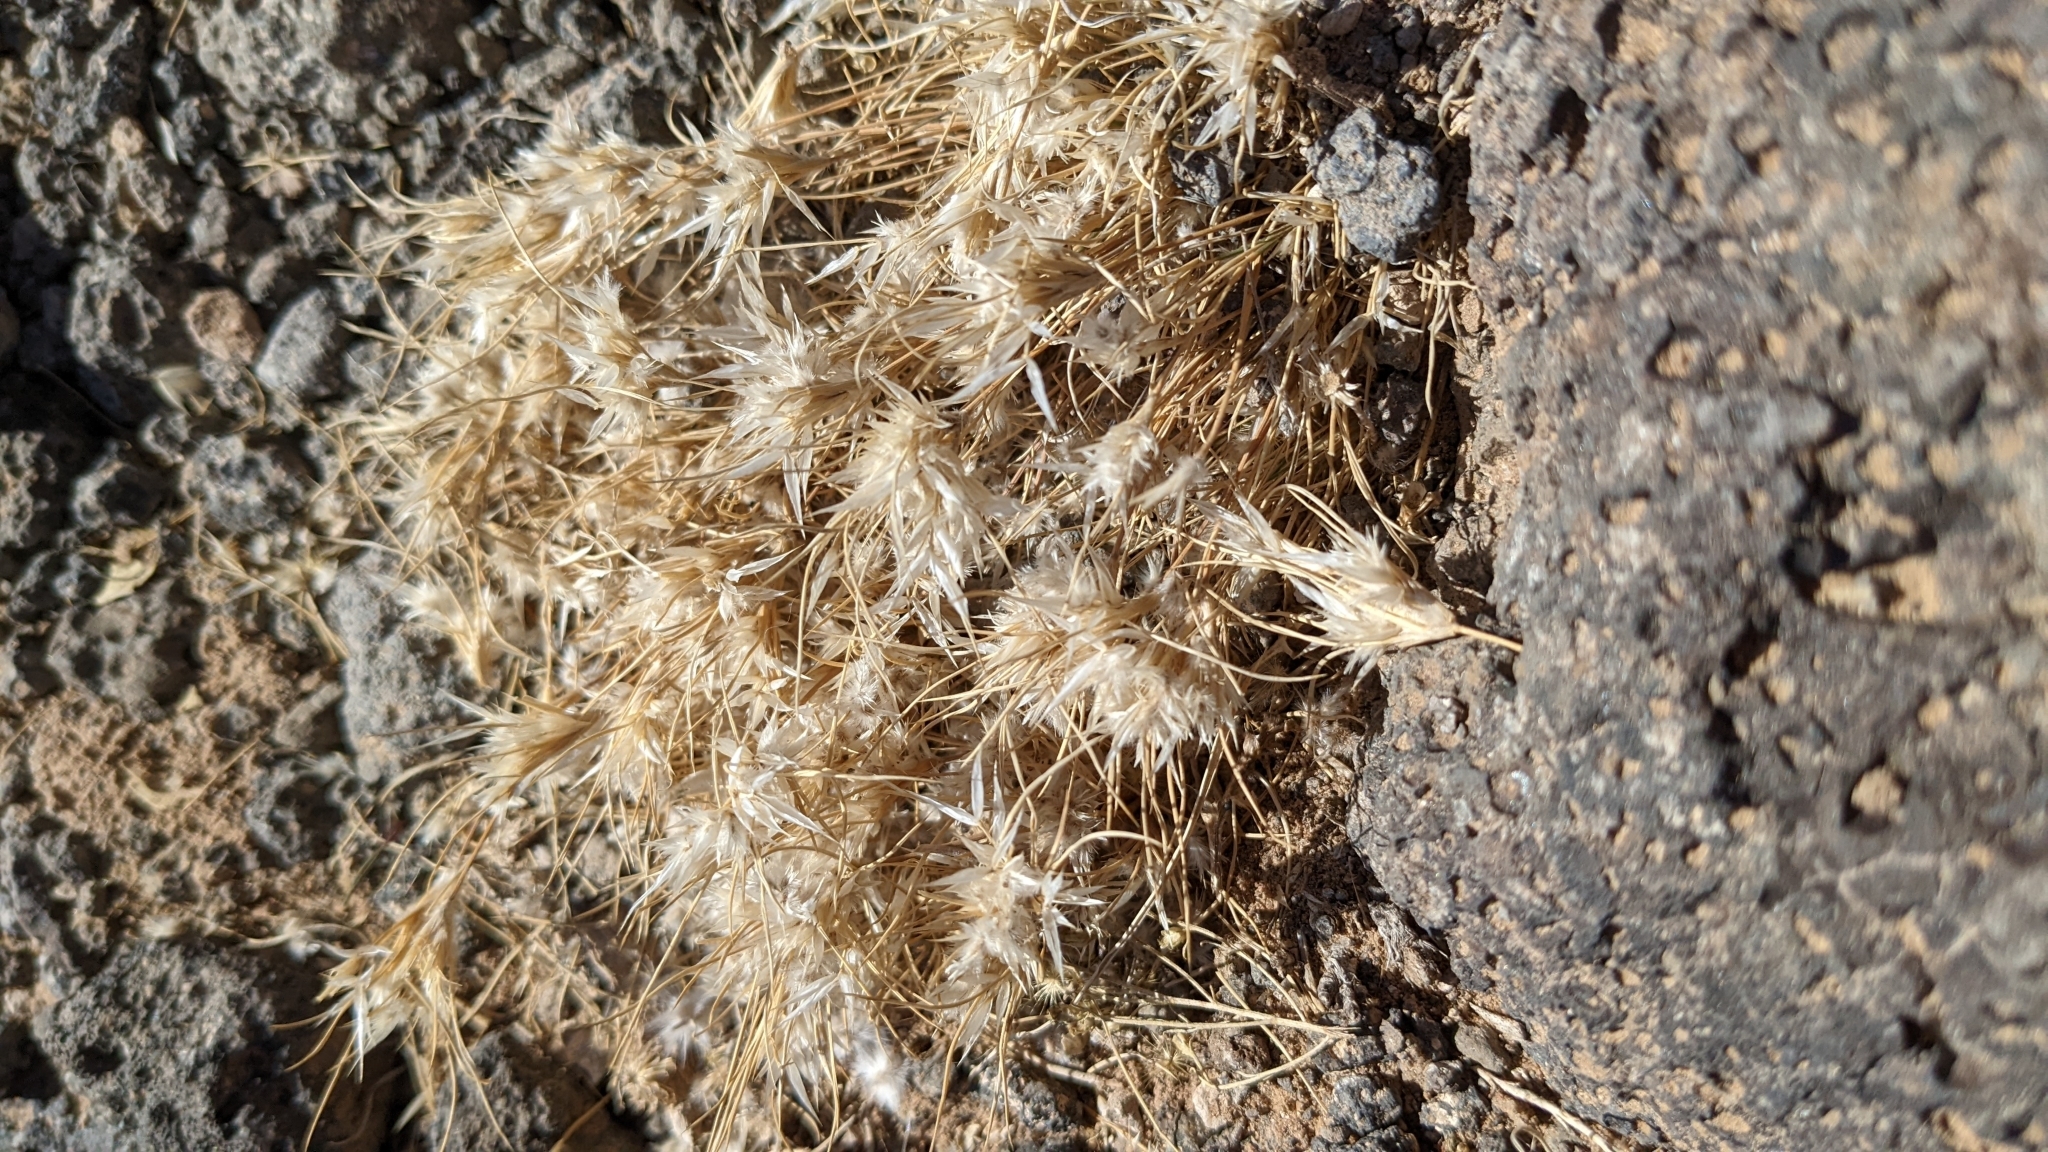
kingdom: Plantae
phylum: Tracheophyta
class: Liliopsida
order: Poales
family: Poaceae
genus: Dasyochloa
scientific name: Dasyochloa pulchella
